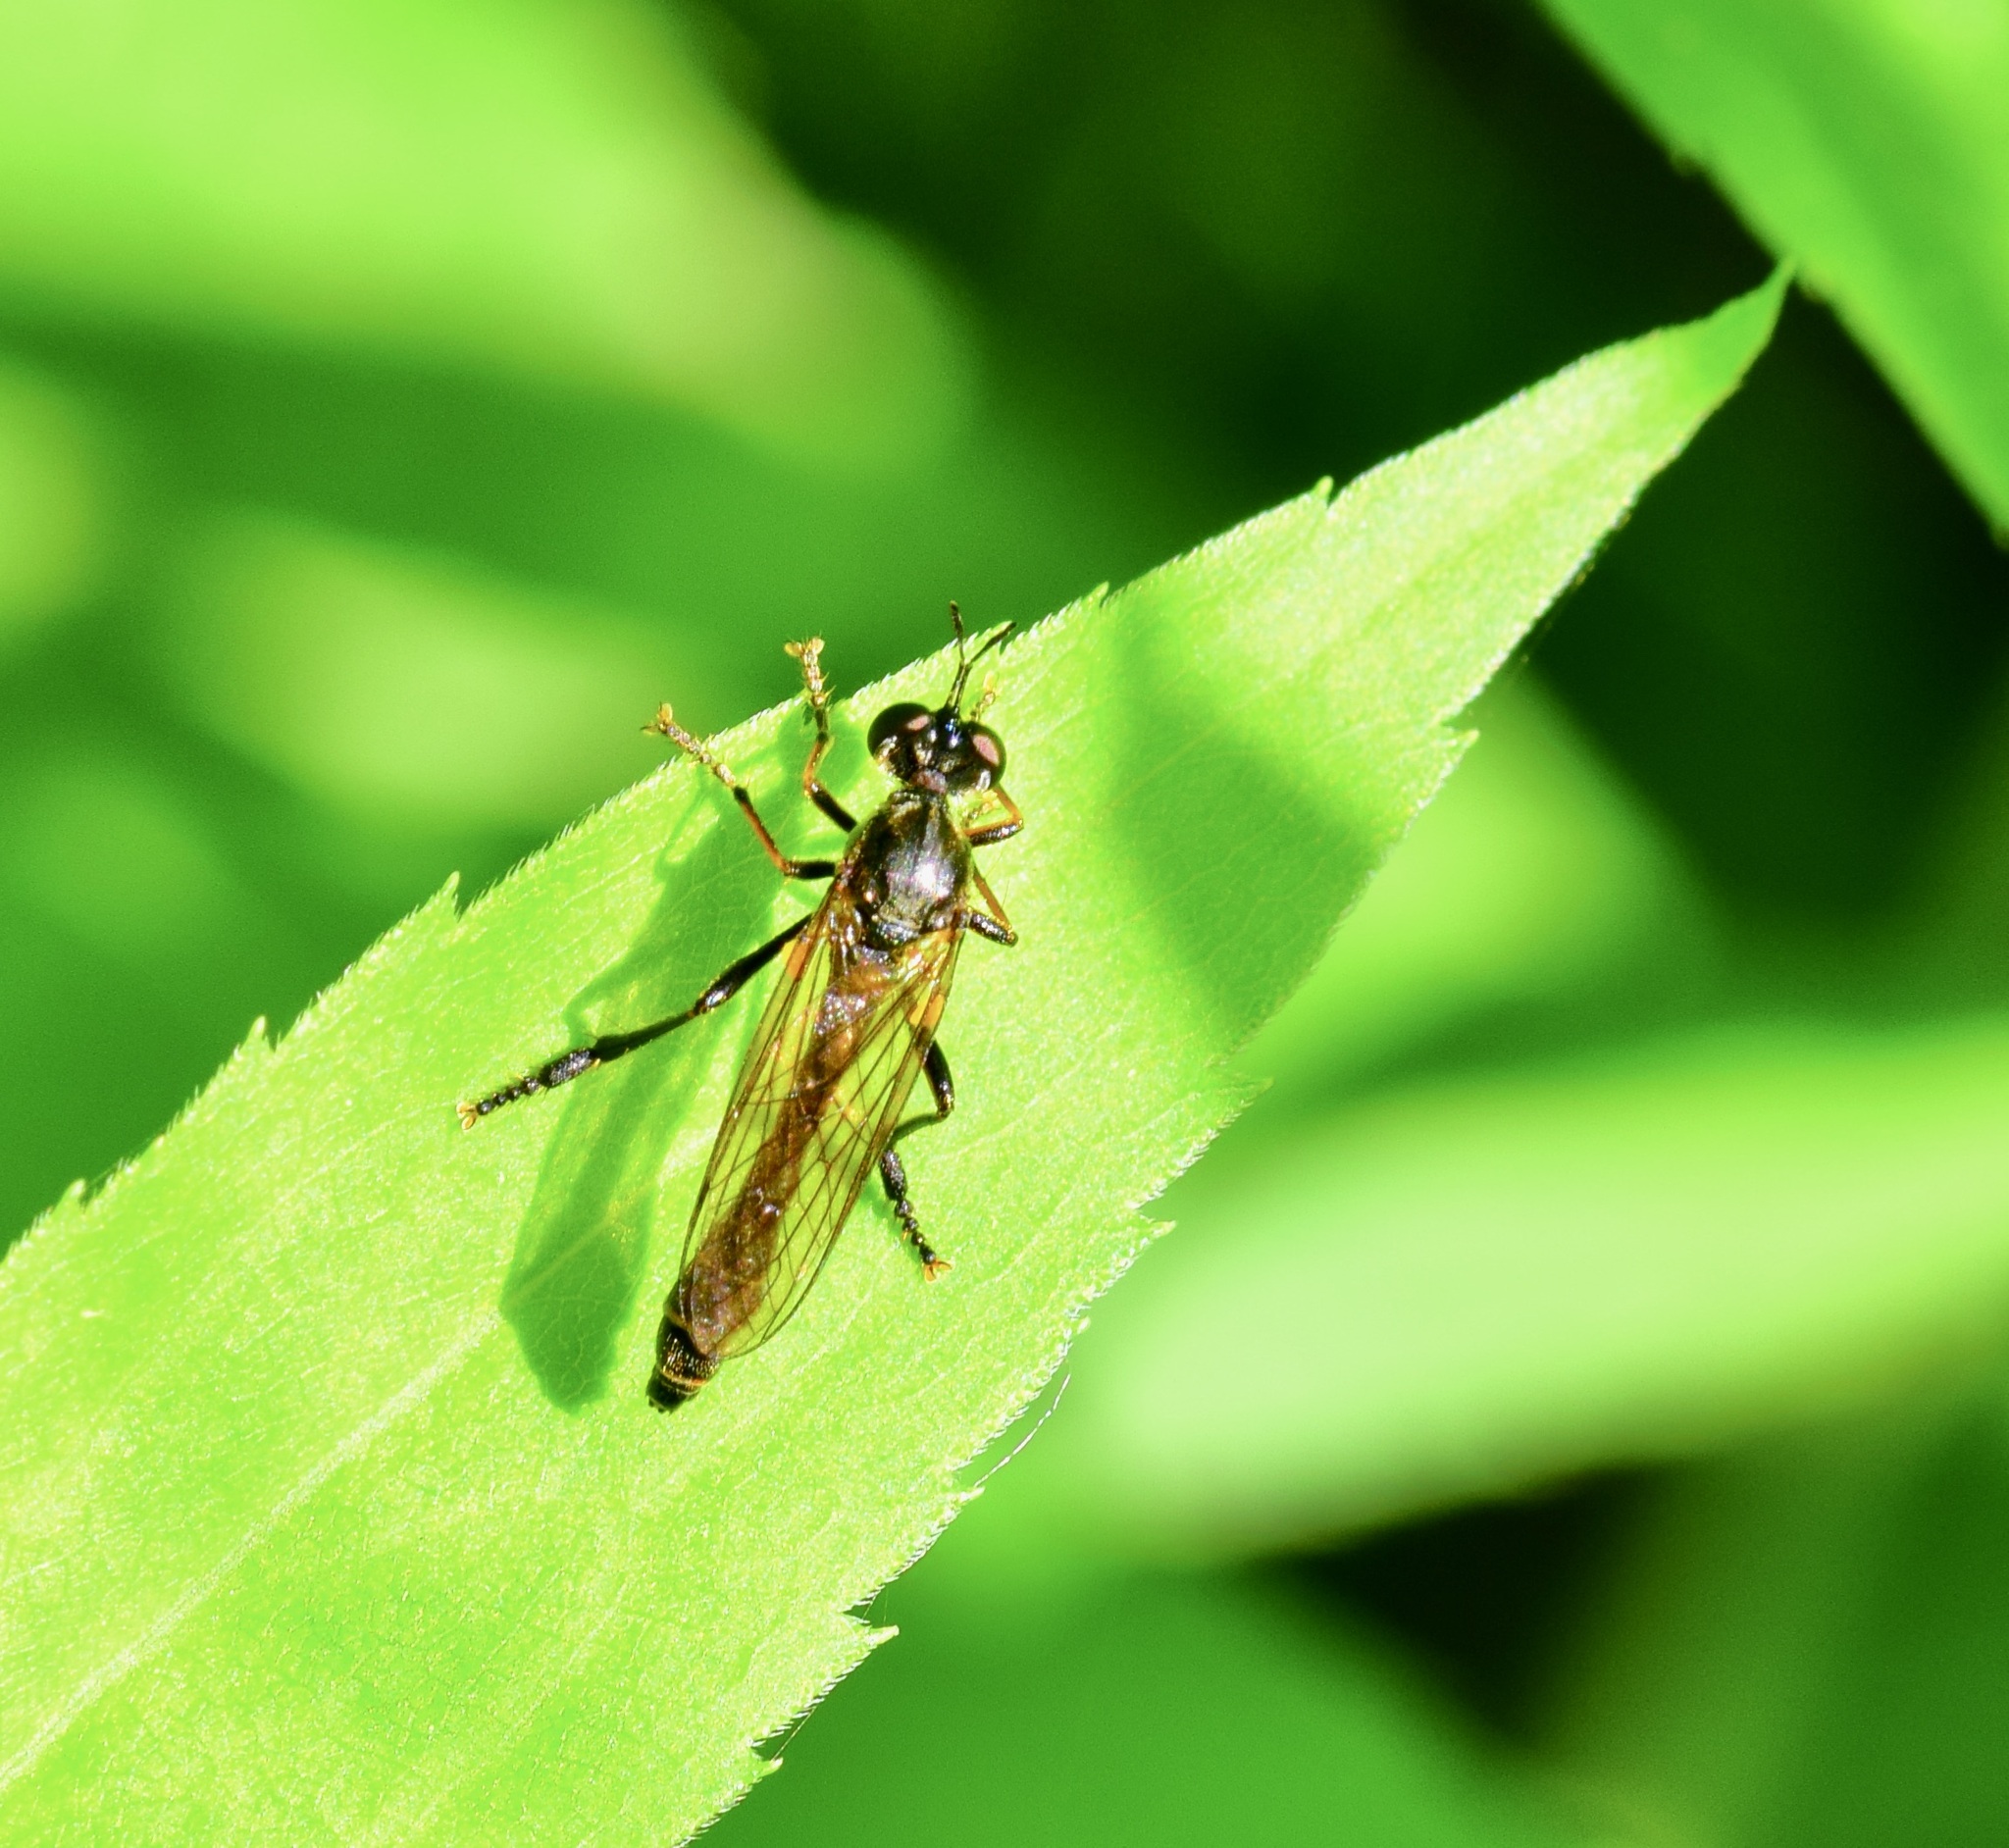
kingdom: Animalia
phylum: Arthropoda
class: Insecta
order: Diptera
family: Asilidae
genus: Dioctria
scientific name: Dioctria hyalipennis
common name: Stripe-legged robberfly
